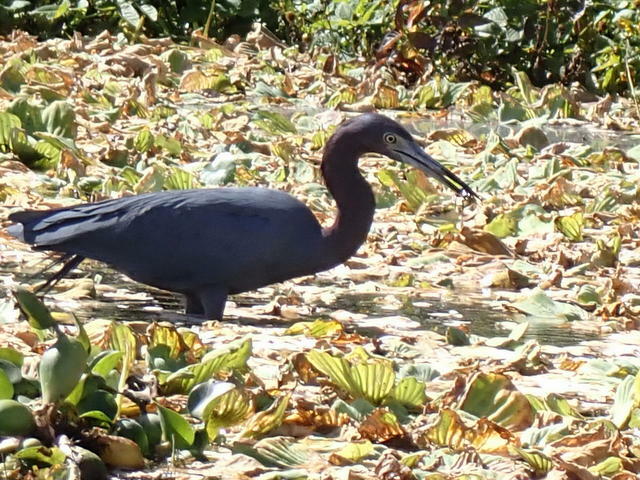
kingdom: Animalia
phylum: Chordata
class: Aves
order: Pelecaniformes
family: Ardeidae
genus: Egretta
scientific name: Egretta caerulea
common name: Little blue heron
